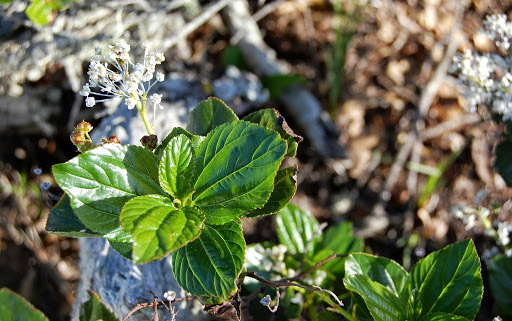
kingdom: Plantae
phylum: Tracheophyta
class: Magnoliopsida
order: Rosales
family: Rhamnaceae
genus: Ceanothus
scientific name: Ceanothus arboreus
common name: Catalina mountain-lilac
